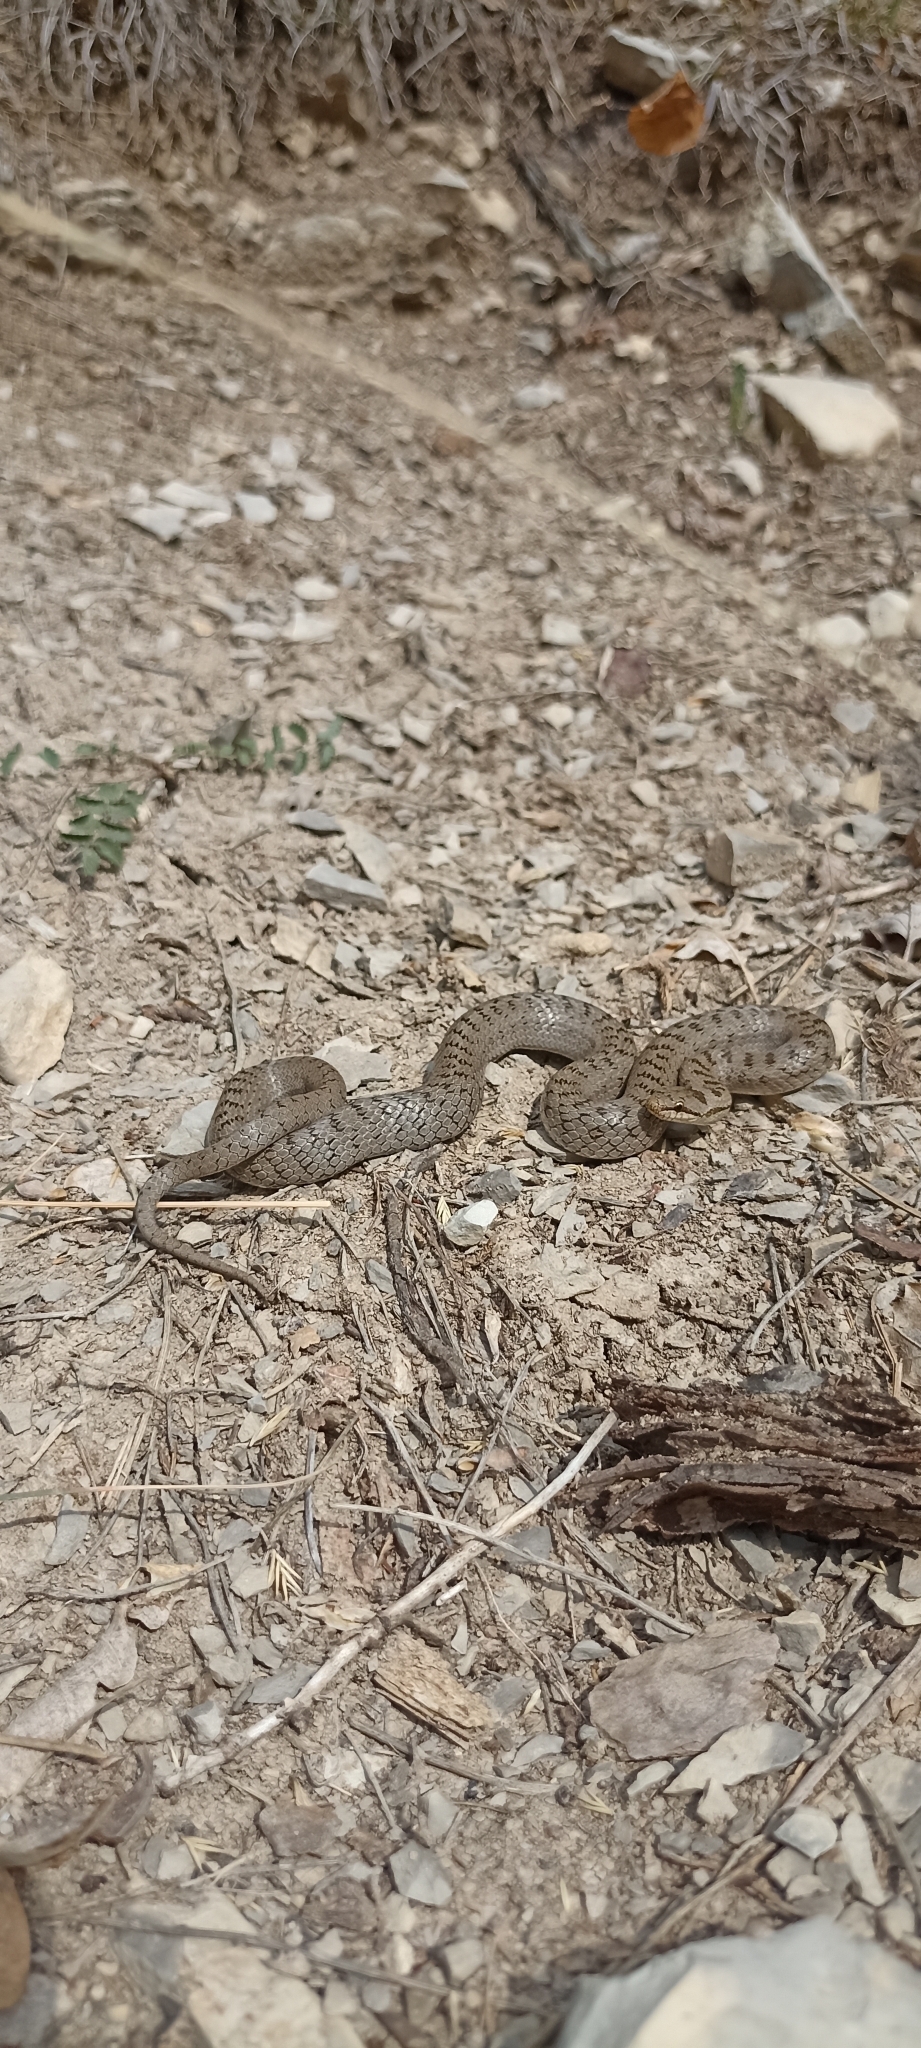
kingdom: Animalia
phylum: Chordata
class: Squamata
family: Colubridae
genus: Coronella
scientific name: Coronella austriaca
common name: Smooth snake
